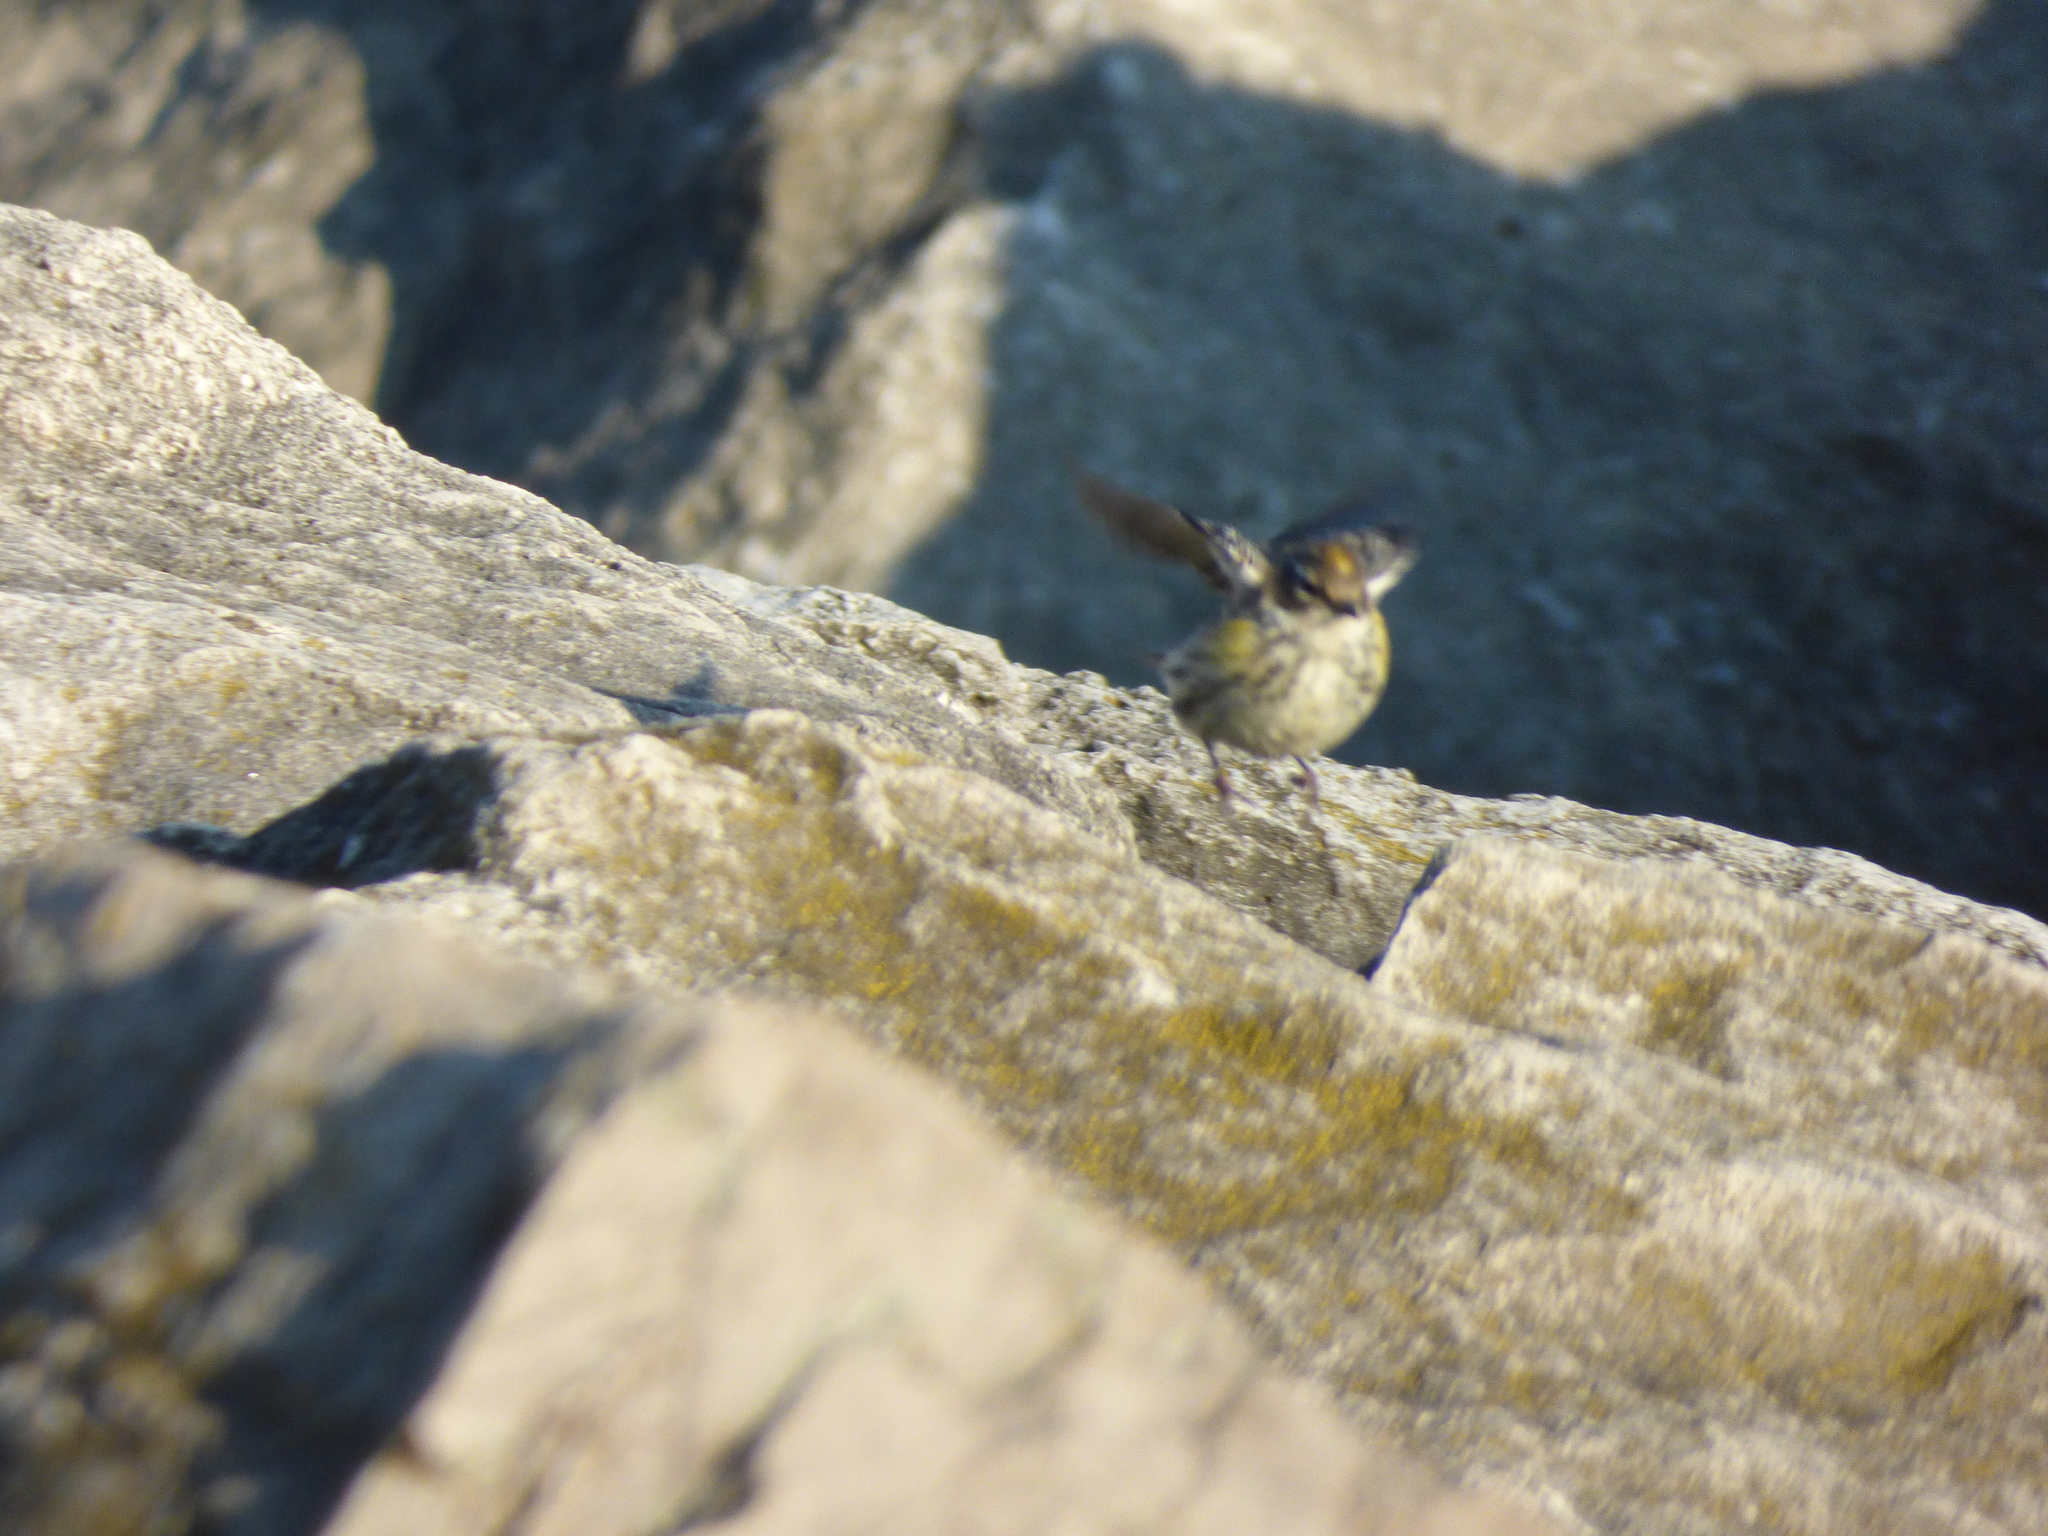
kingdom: Animalia
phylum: Chordata
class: Aves
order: Passeriformes
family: Parulidae
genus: Setophaga
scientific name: Setophaga coronata
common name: Myrtle warbler
